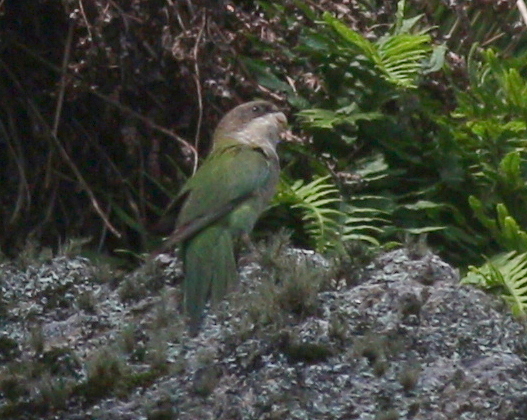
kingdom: Animalia
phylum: Chordata
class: Aves
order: Psittaciformes
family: Psittacidae
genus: Psilopsiagon
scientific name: Psilopsiagon aymara
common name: Grey-hooded parakeet
